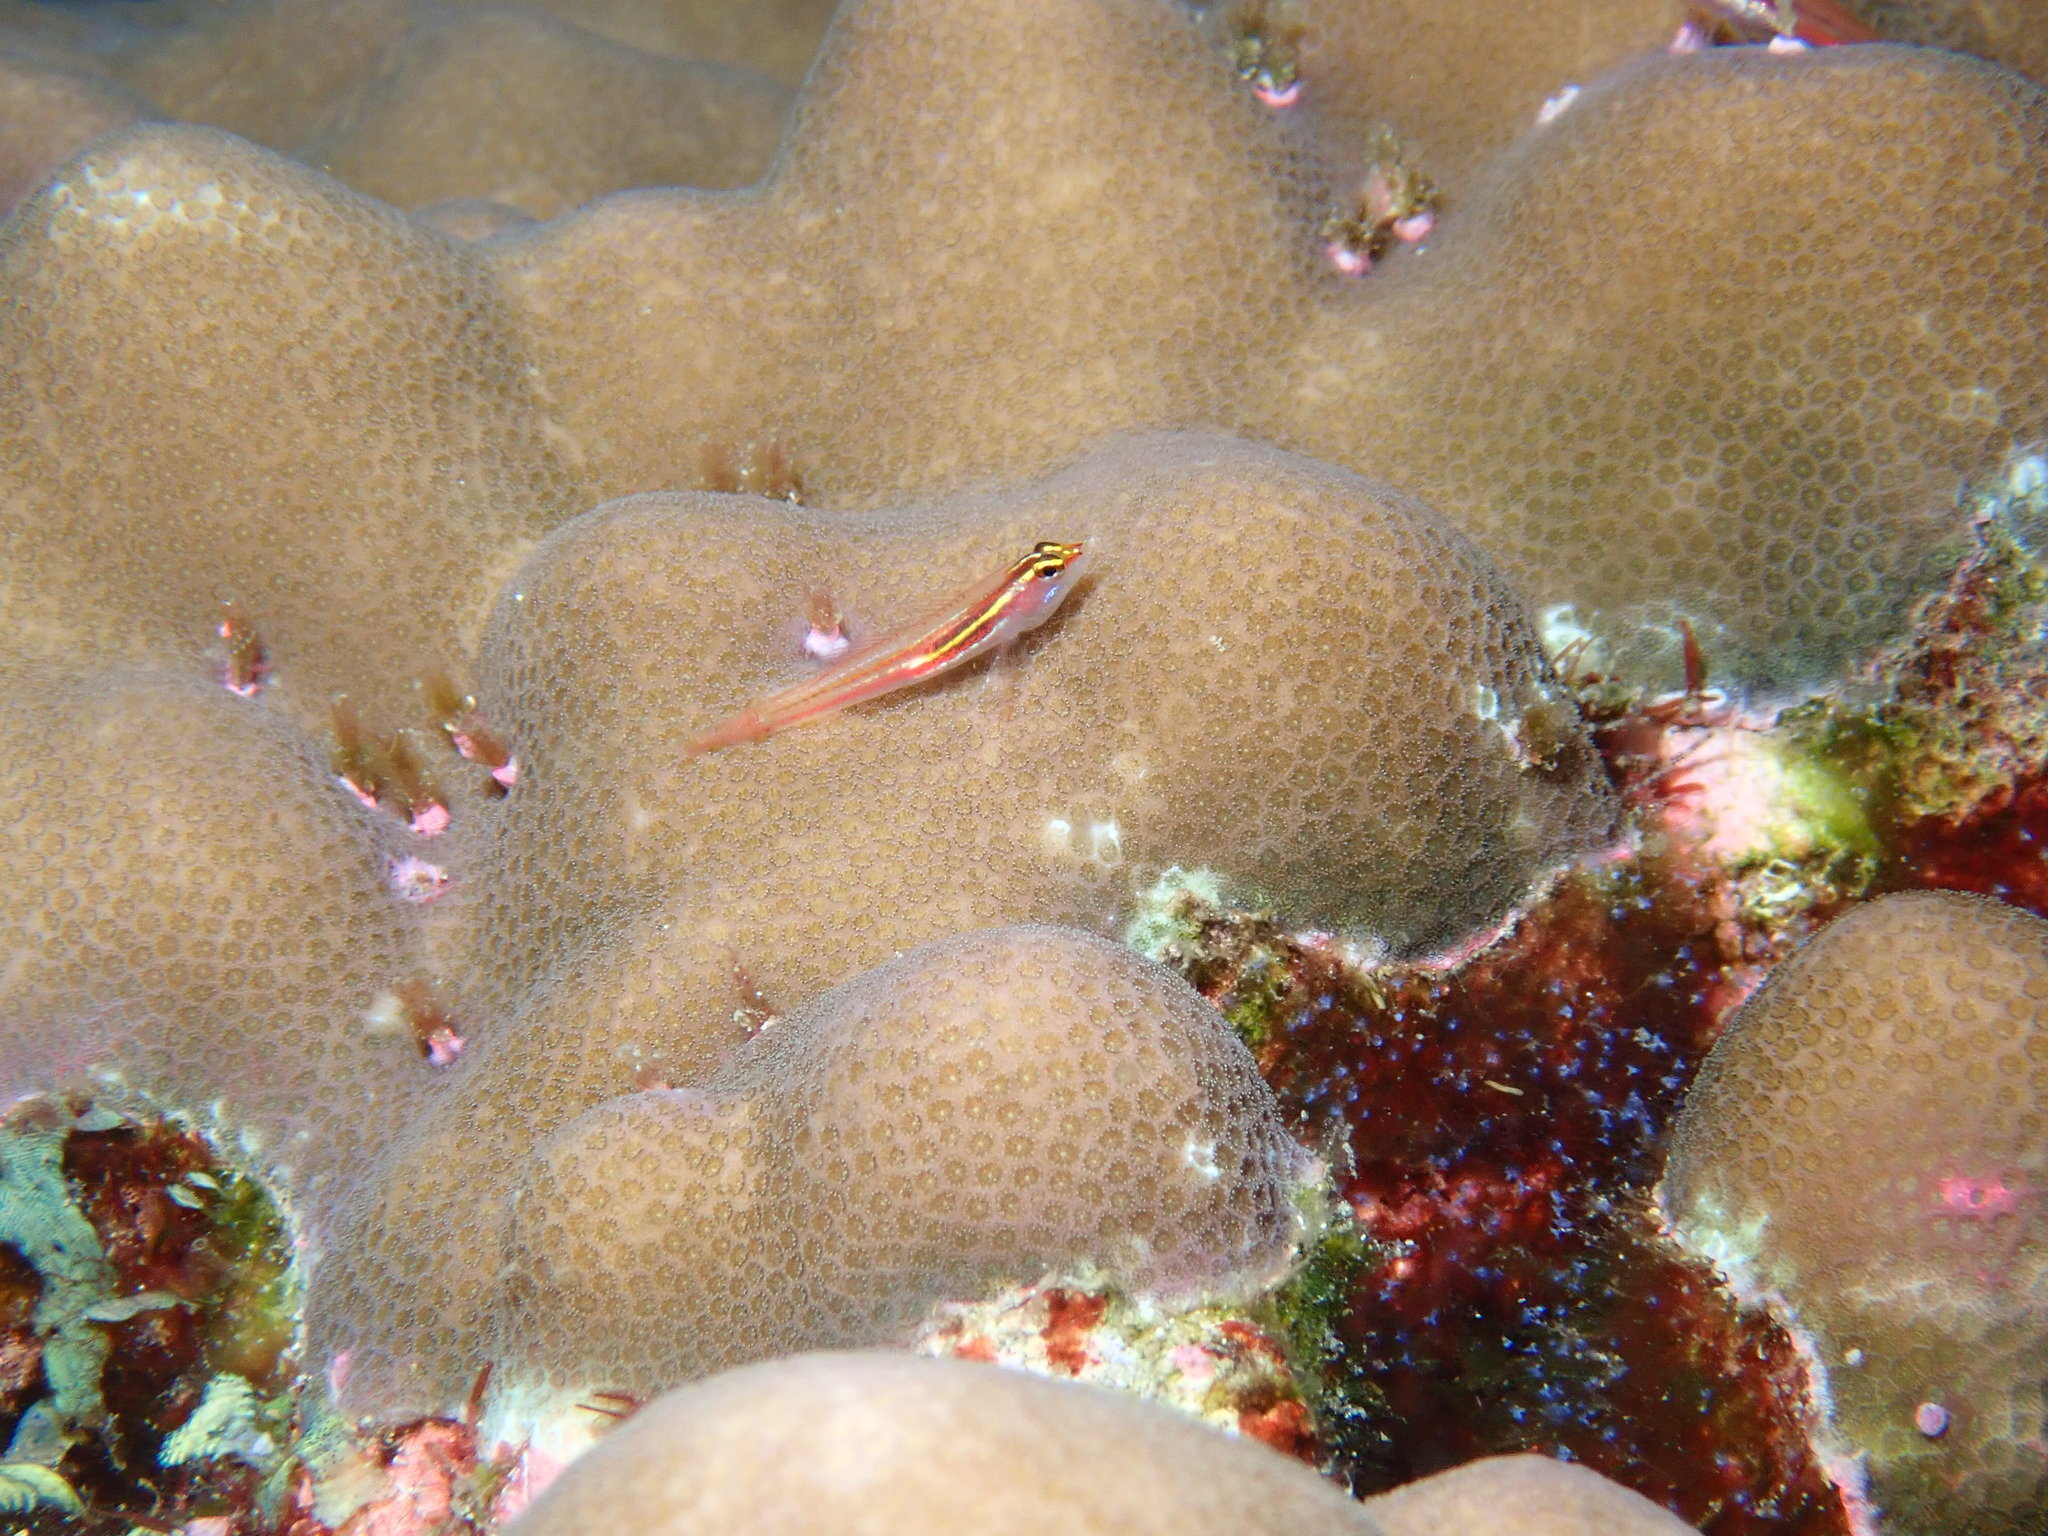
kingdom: Animalia
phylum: Chordata
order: Perciformes
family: Gobiidae
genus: Eviota
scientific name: Eviota mikiae
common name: Miki's dwarfgoby
